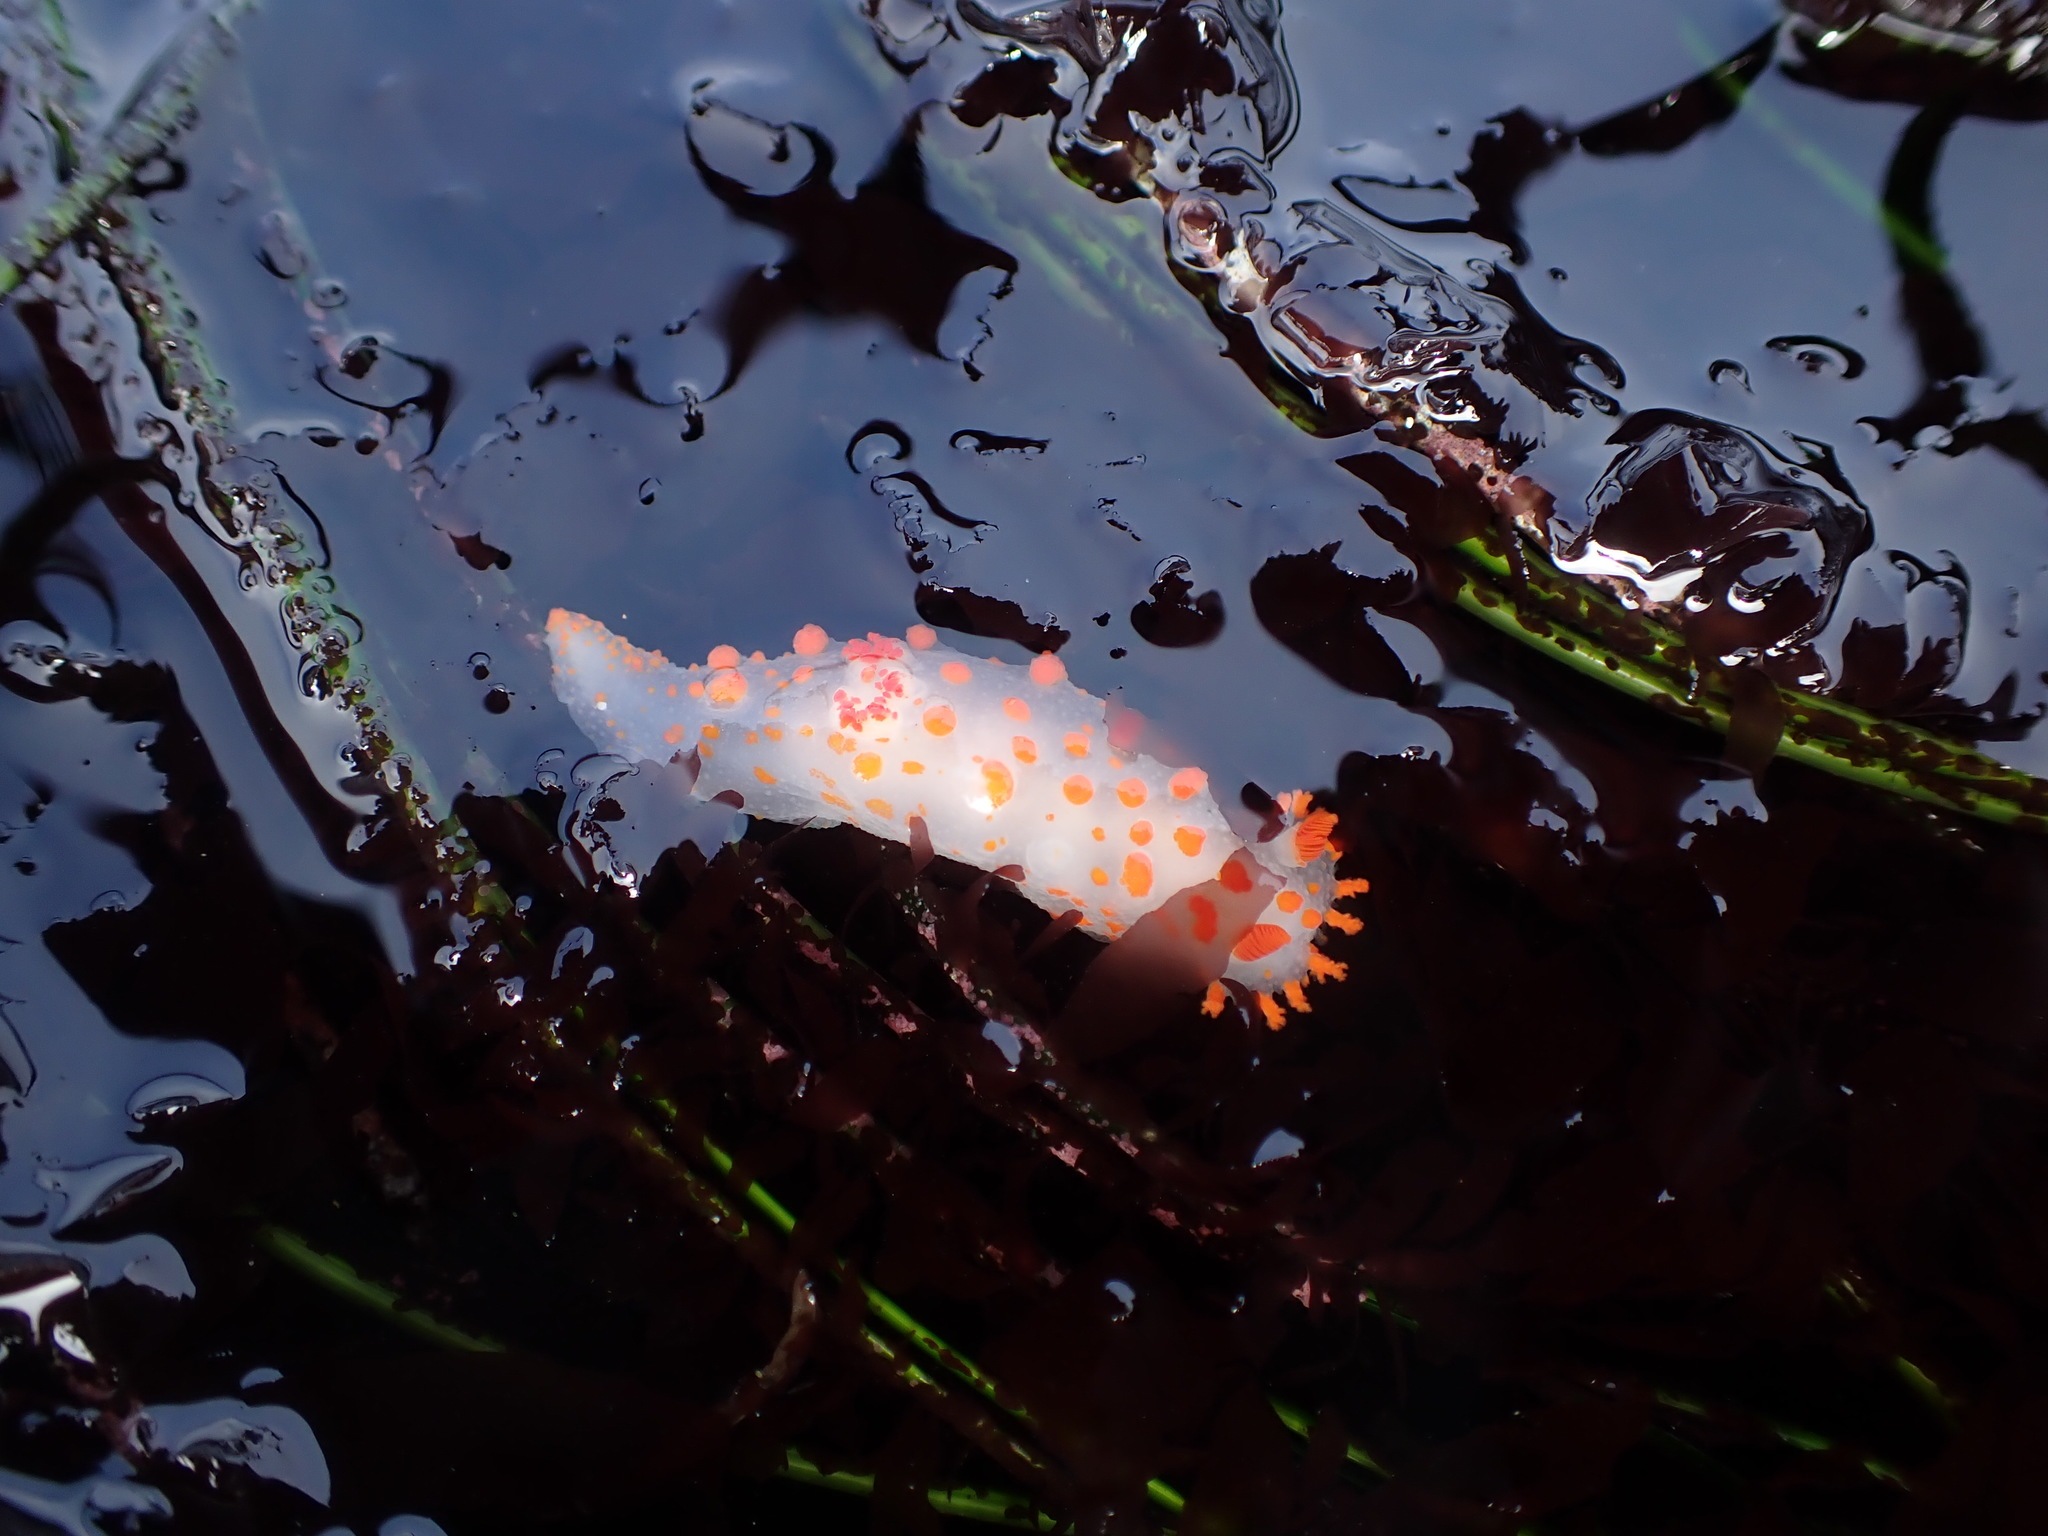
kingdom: Animalia
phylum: Mollusca
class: Gastropoda
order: Nudibranchia
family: Polyceridae
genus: Triopha
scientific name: Triopha catalinae
